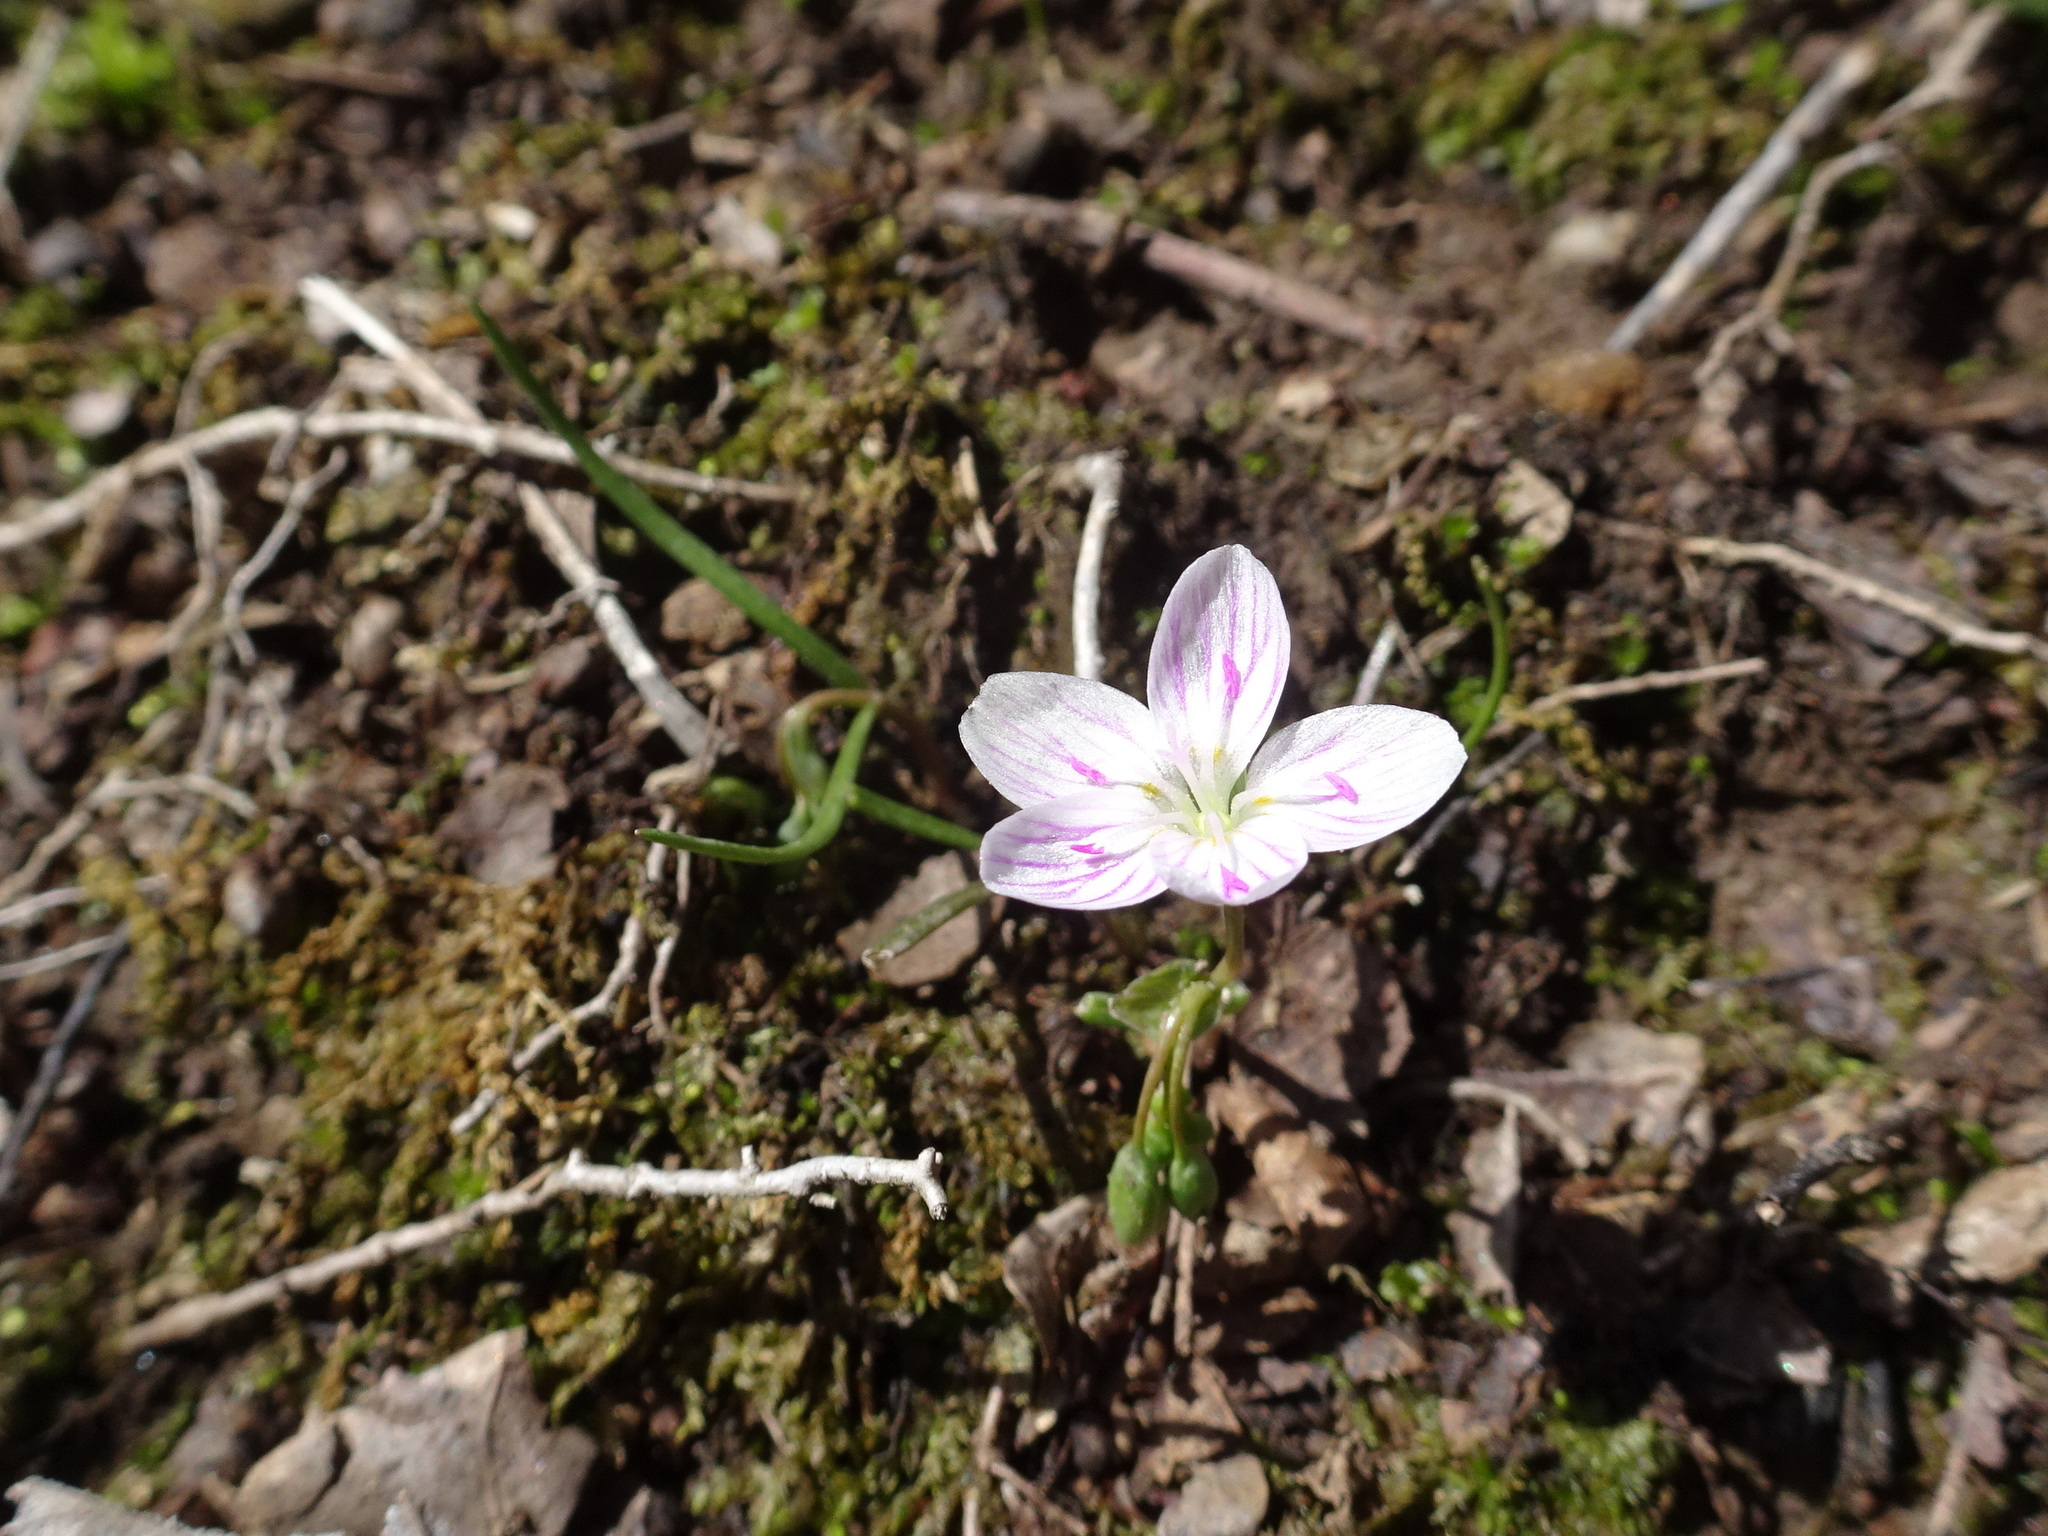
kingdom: Plantae
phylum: Tracheophyta
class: Magnoliopsida
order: Caryophyllales
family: Montiaceae
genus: Claytonia
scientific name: Claytonia virginica
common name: Virginia springbeauty
